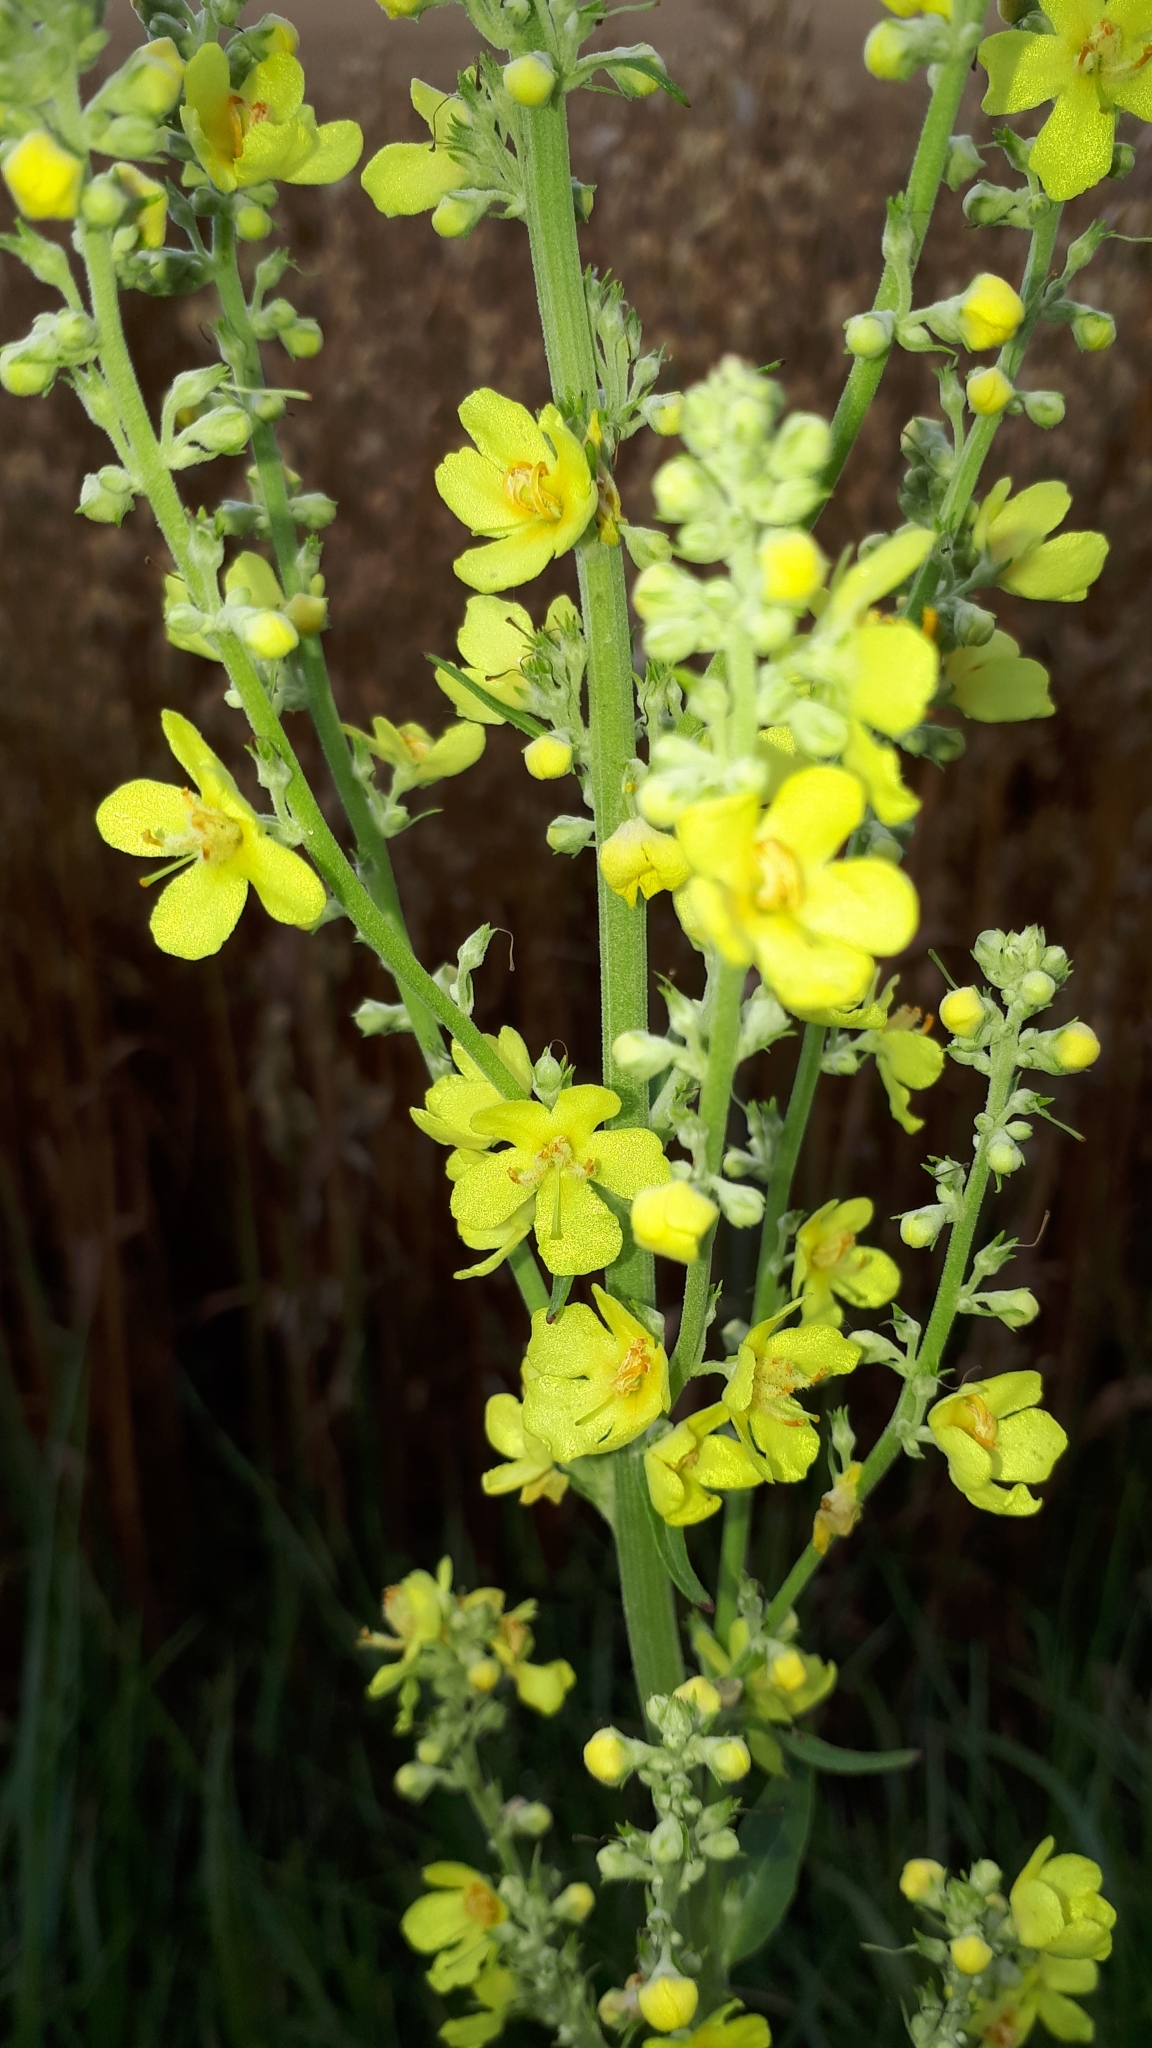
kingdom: Plantae
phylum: Tracheophyta
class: Magnoliopsida
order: Lamiales
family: Scrophulariaceae
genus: Verbascum
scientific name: Verbascum lychnitis
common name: White mullein
